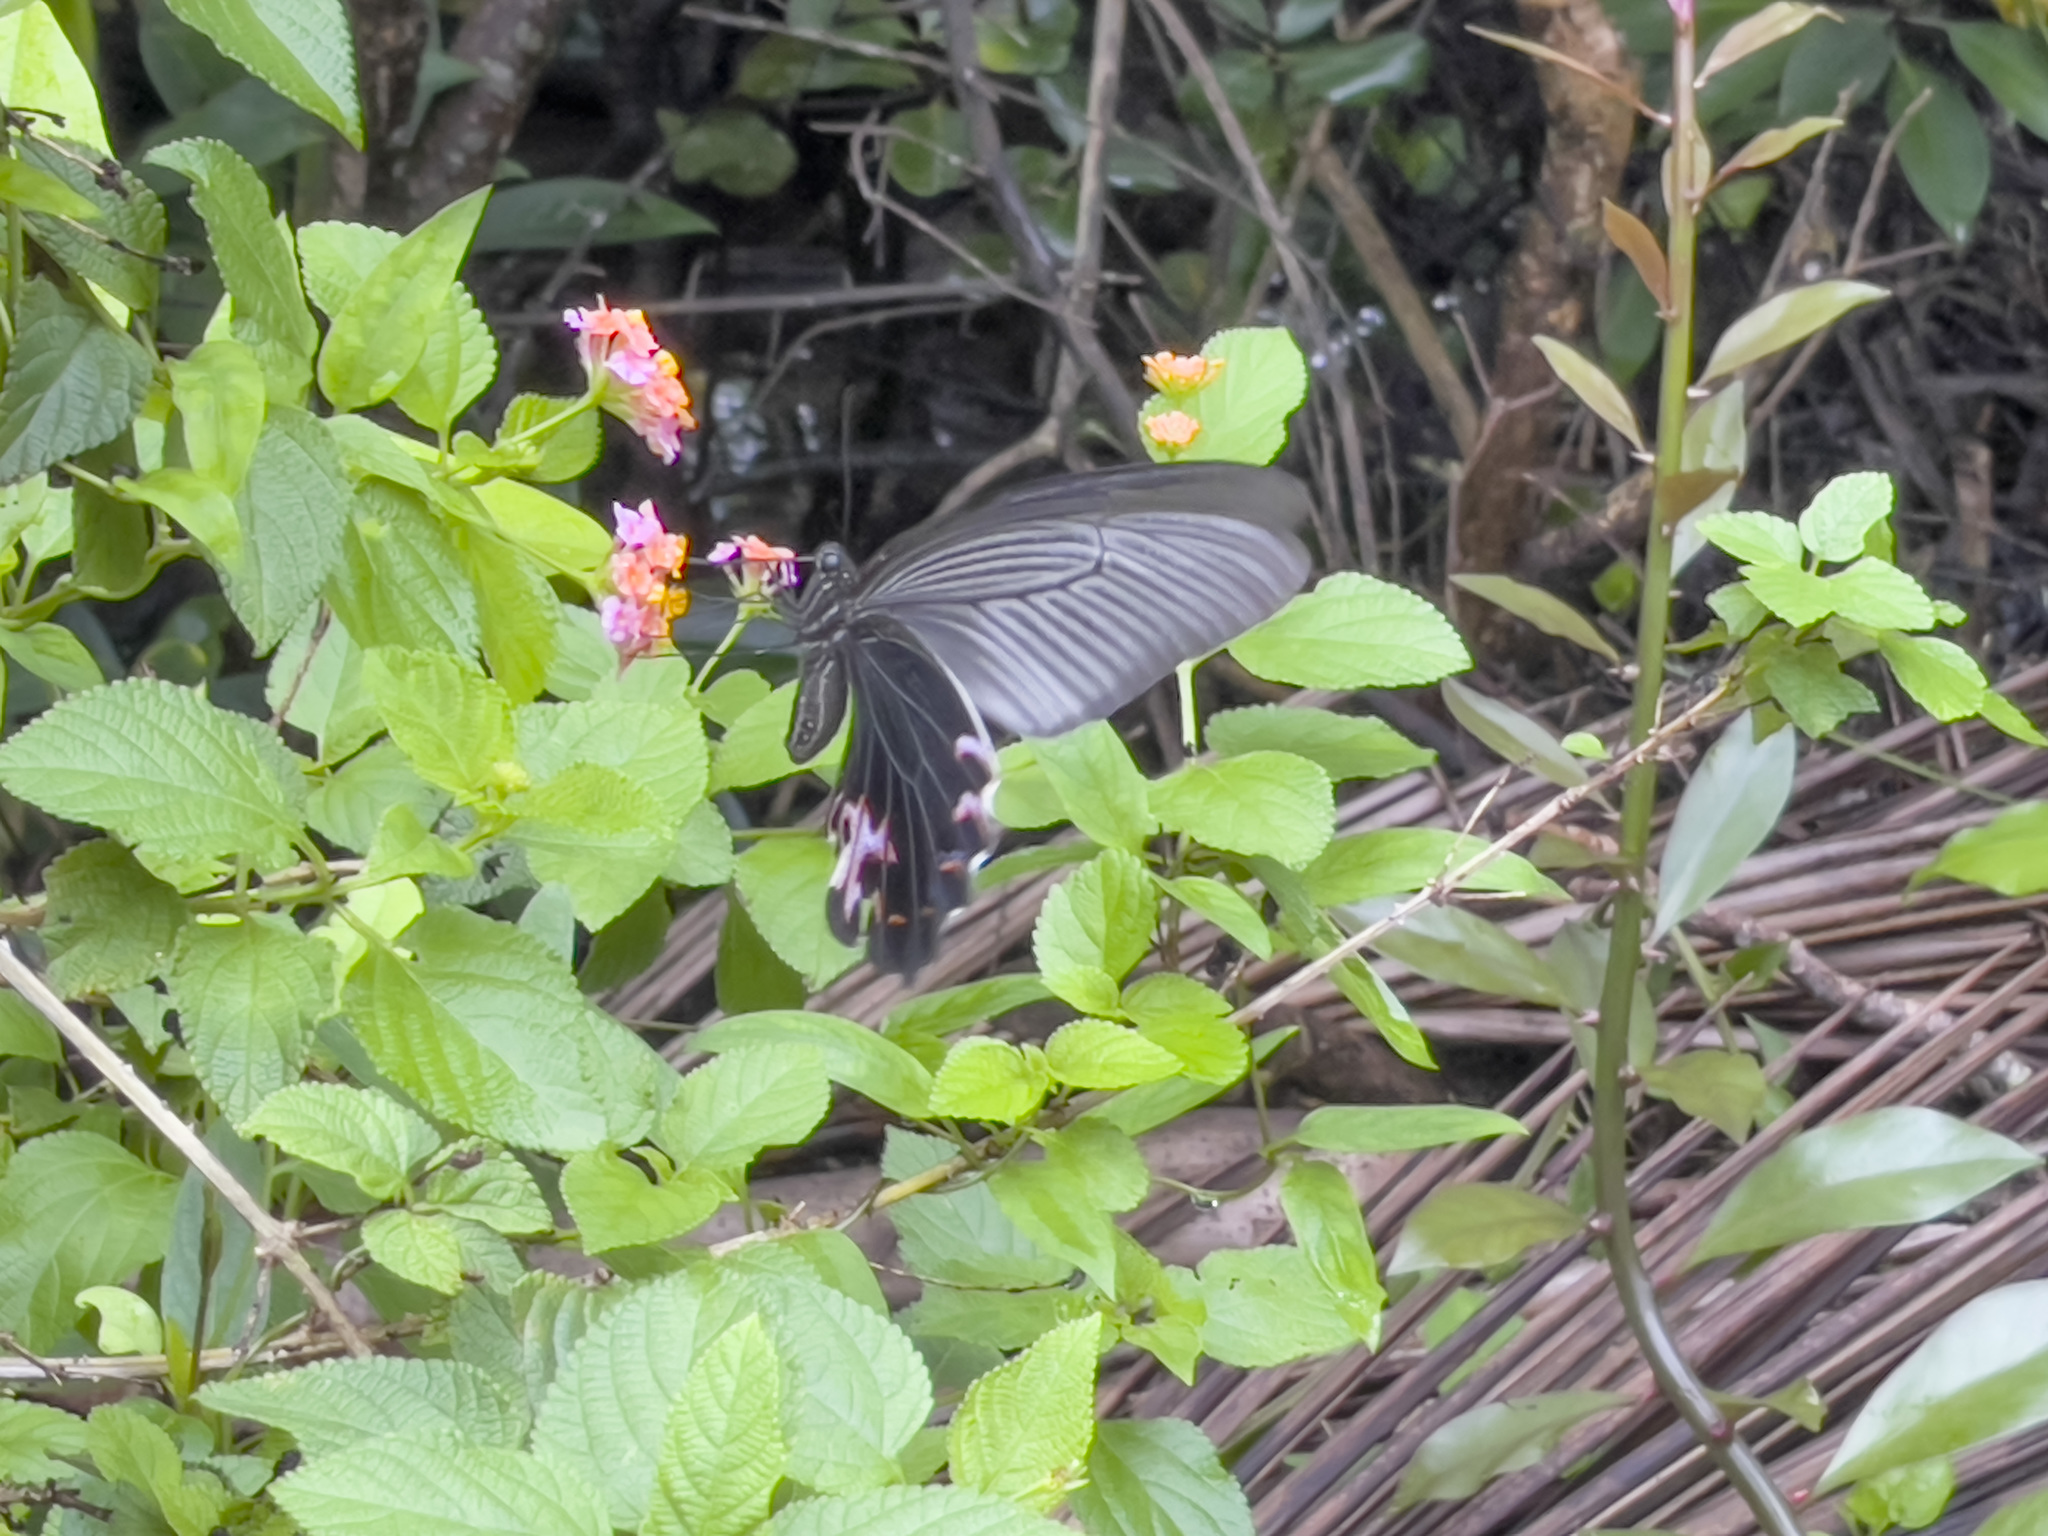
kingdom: Animalia
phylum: Arthropoda
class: Insecta
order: Lepidoptera
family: Papilionidae
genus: Papilio
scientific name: Papilio protenor
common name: Spangle
